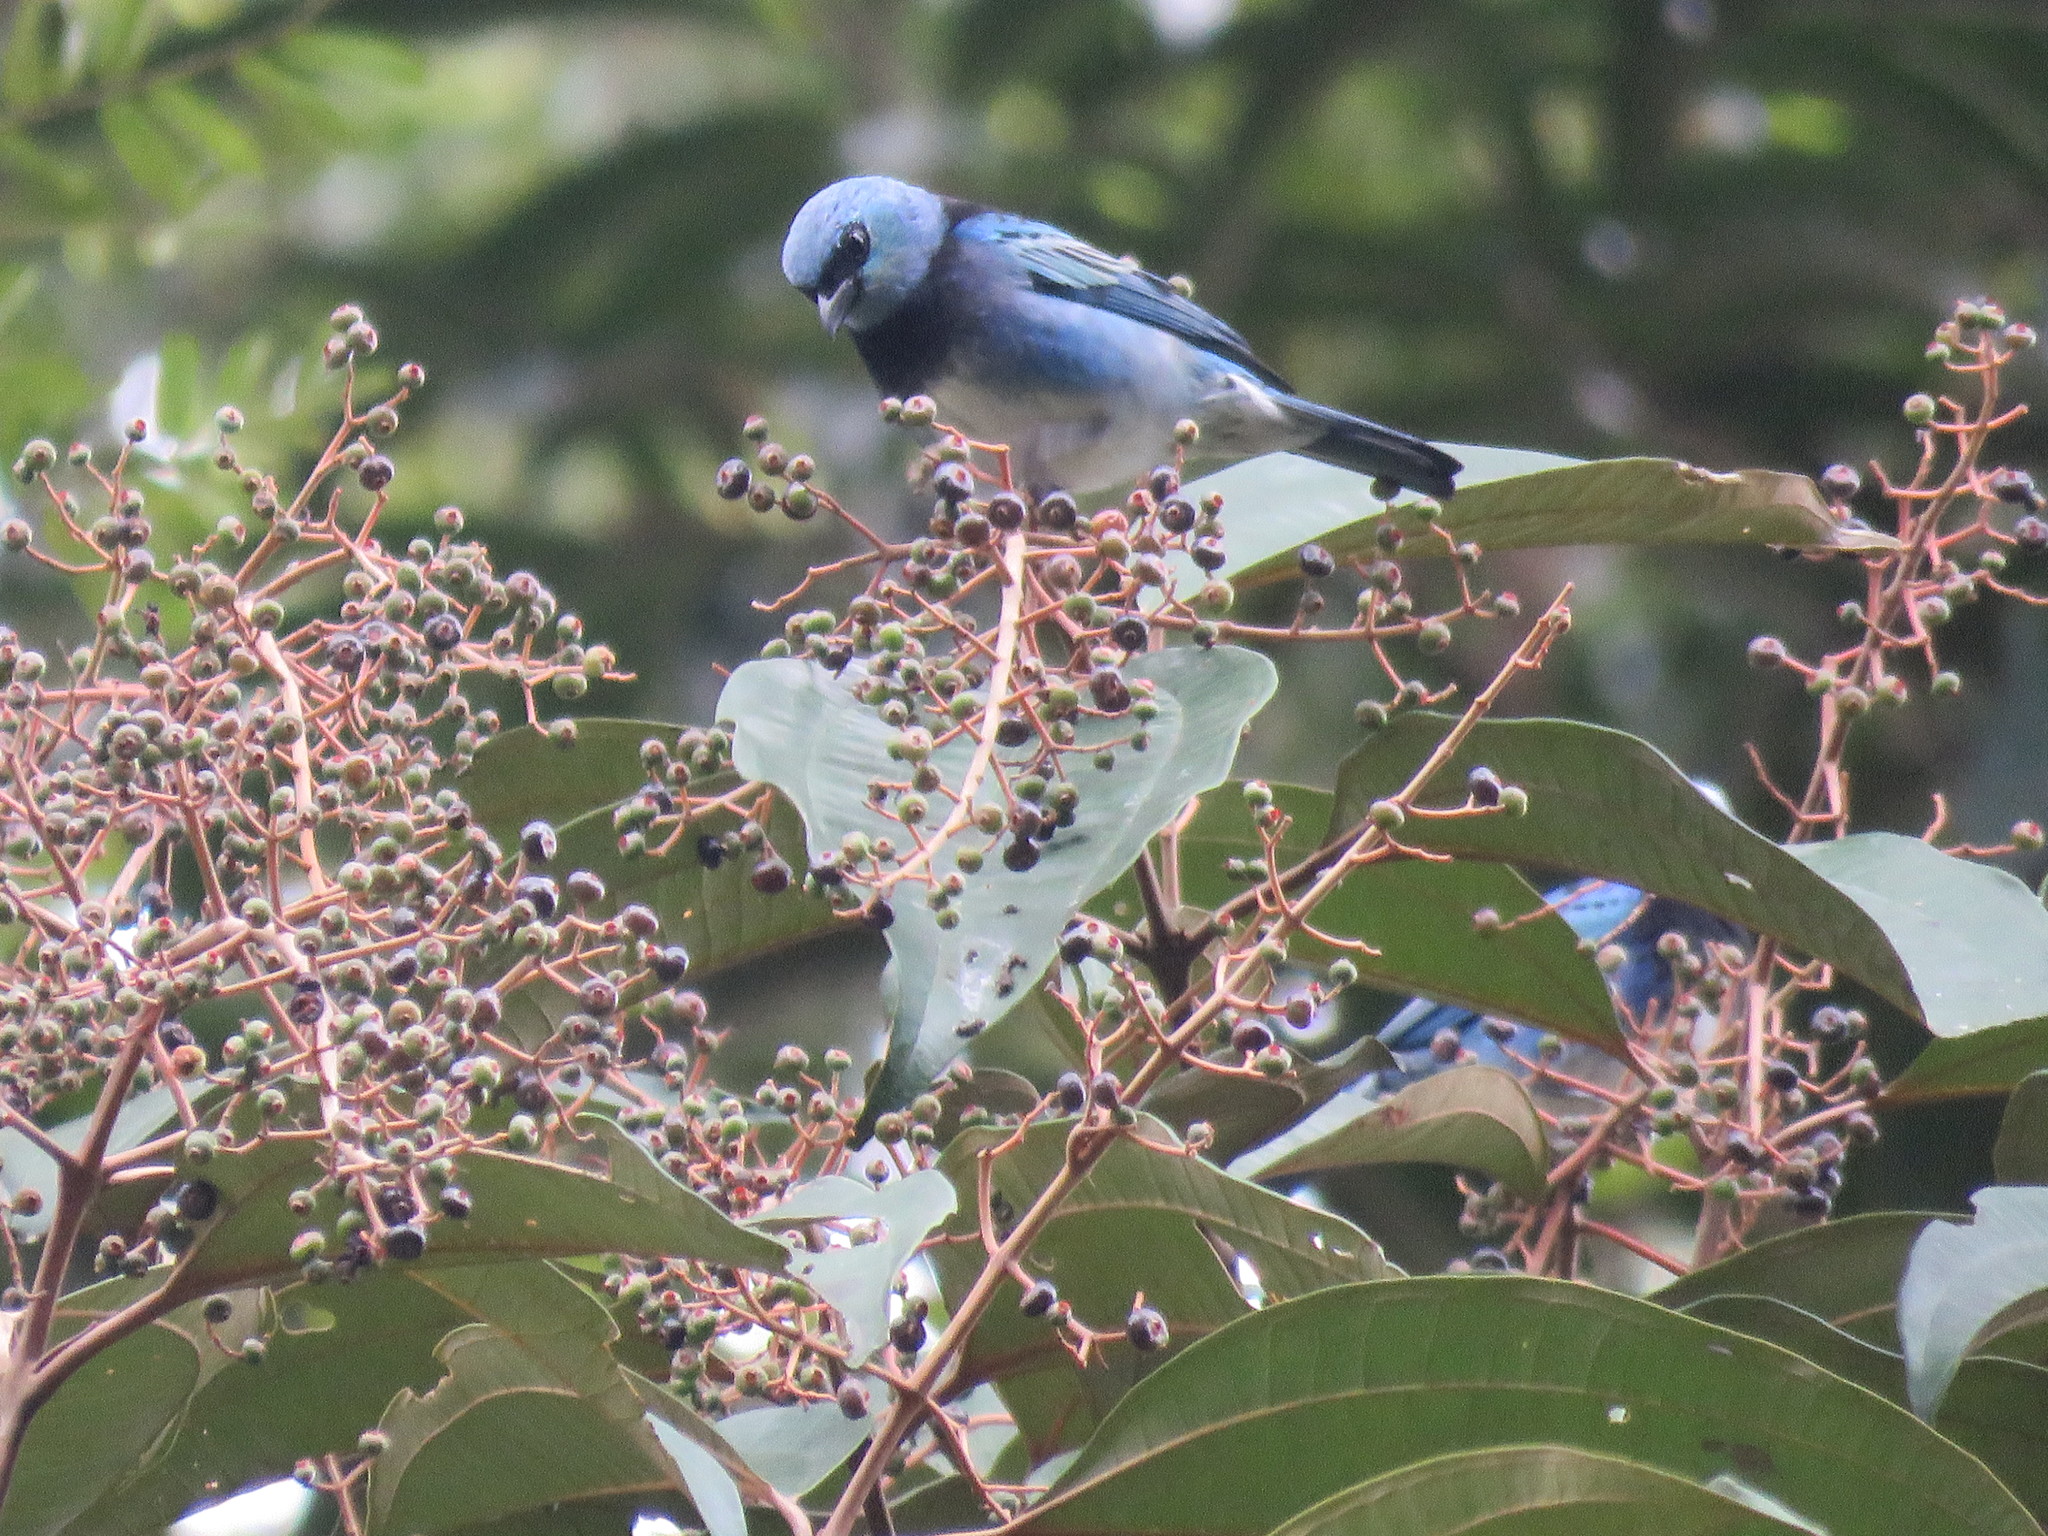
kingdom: Animalia
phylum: Chordata
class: Aves
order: Passeriformes
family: Thraupidae
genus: Stilpnia
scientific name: Stilpnia nigrocincta
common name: Masked tanager
